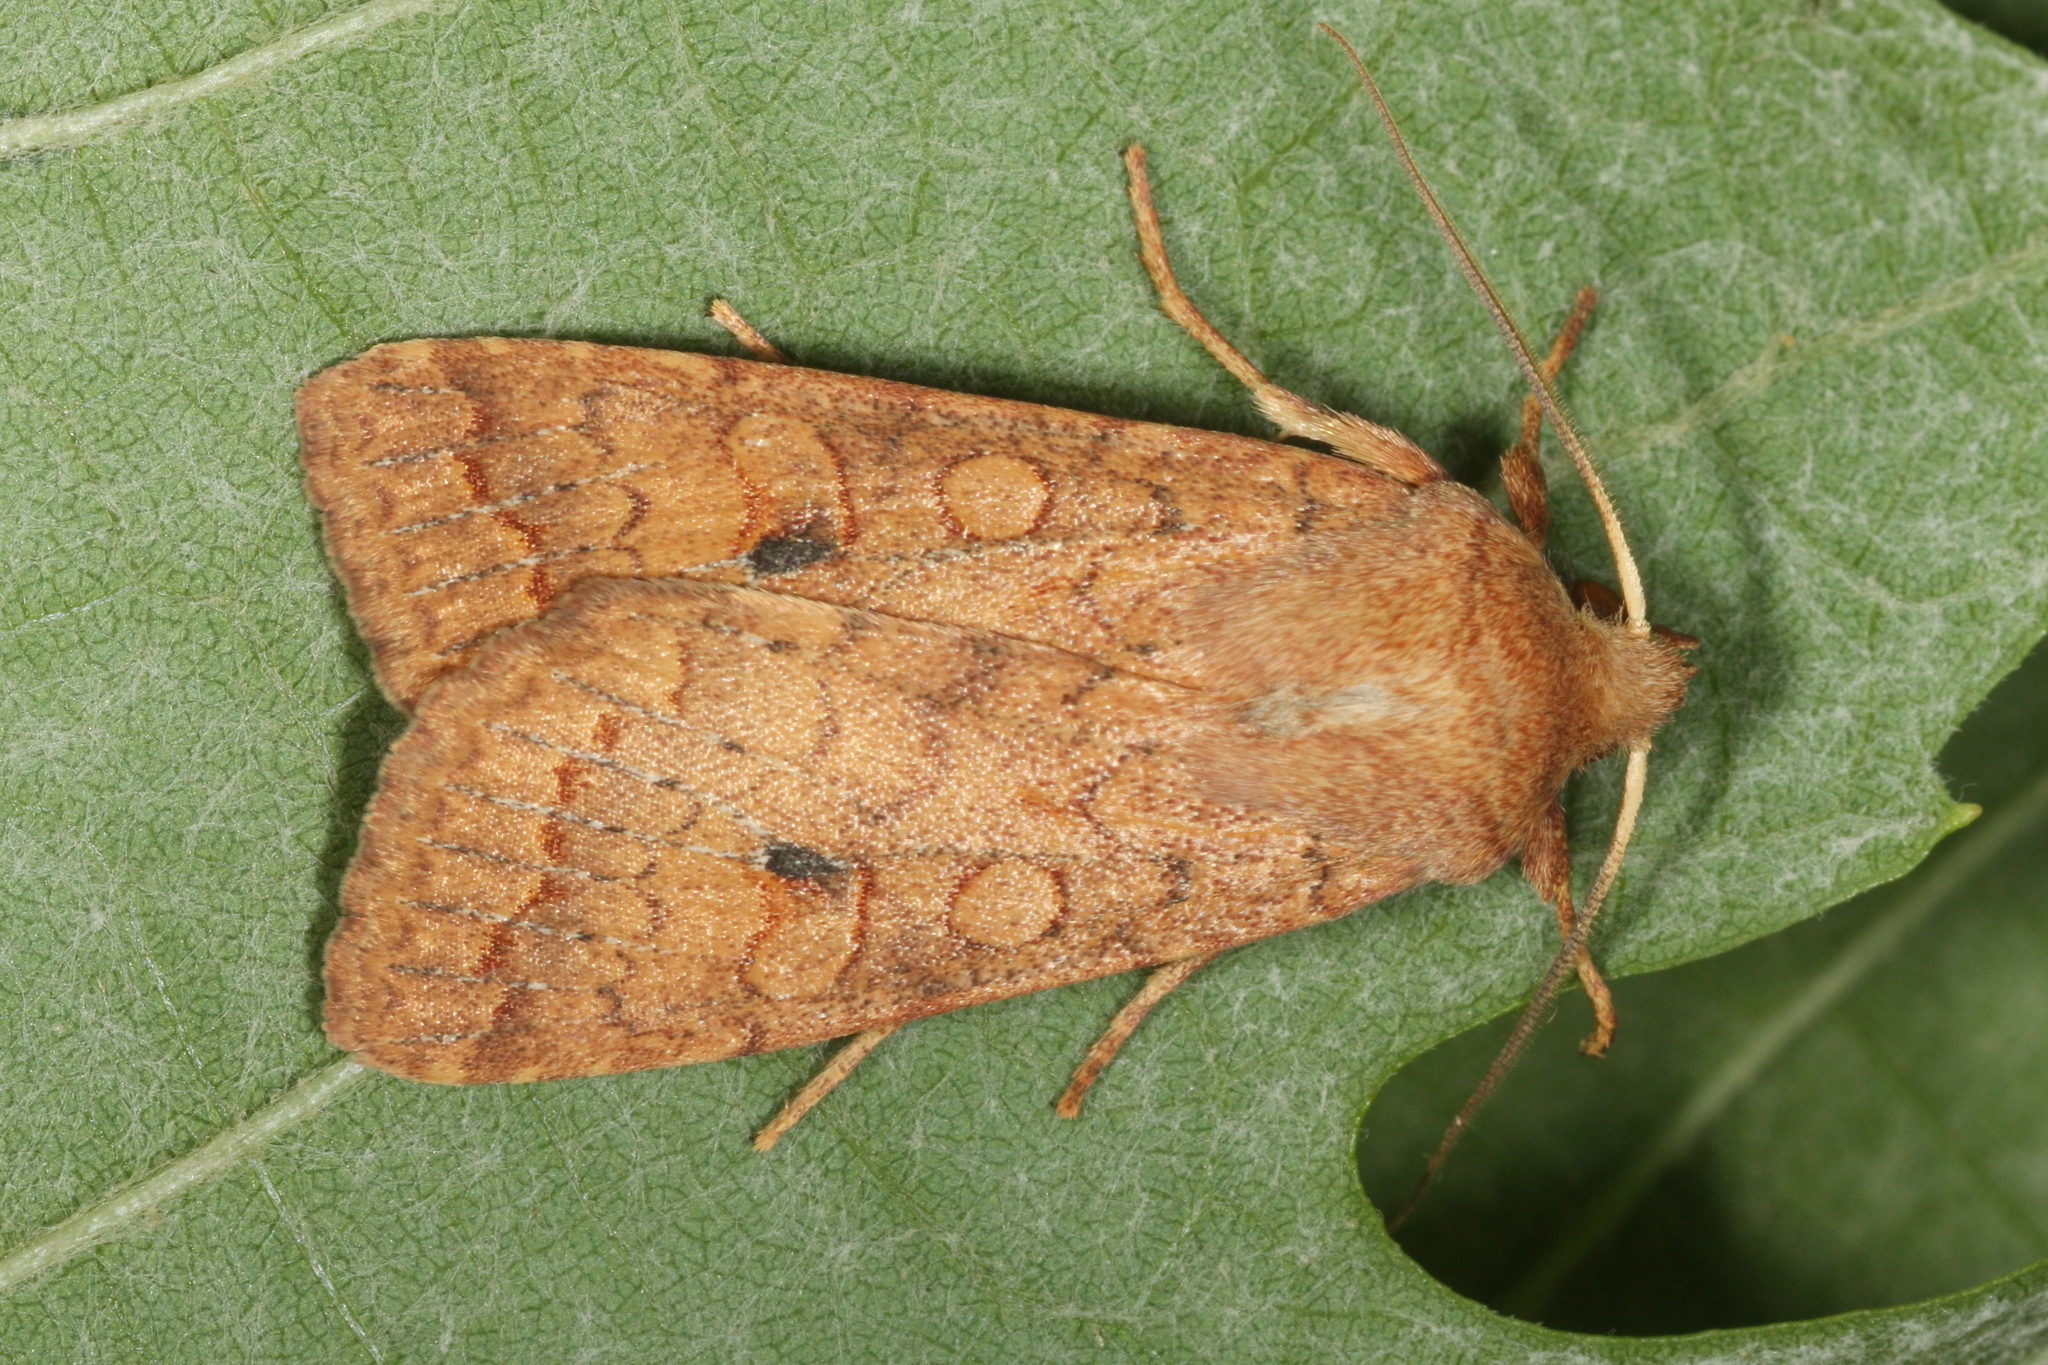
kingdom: Animalia
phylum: Arthropoda
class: Insecta
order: Lepidoptera
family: Noctuidae
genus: Sunira
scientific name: Sunira circellaris
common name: Brick
